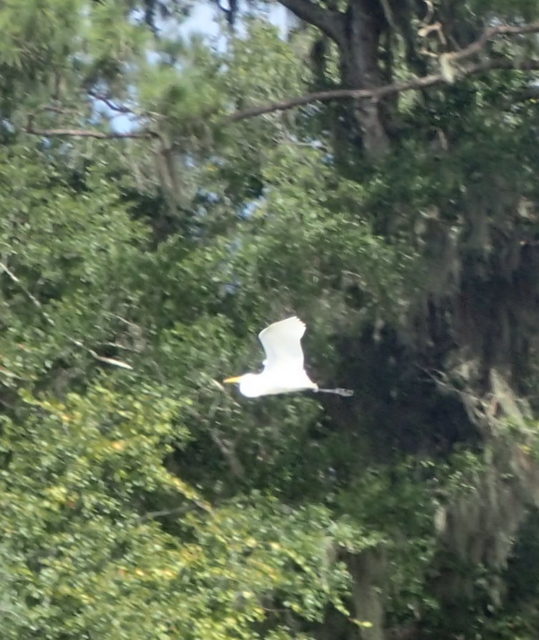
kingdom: Animalia
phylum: Chordata
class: Aves
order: Pelecaniformes
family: Ardeidae
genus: Ardea
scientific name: Ardea alba
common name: Great egret
